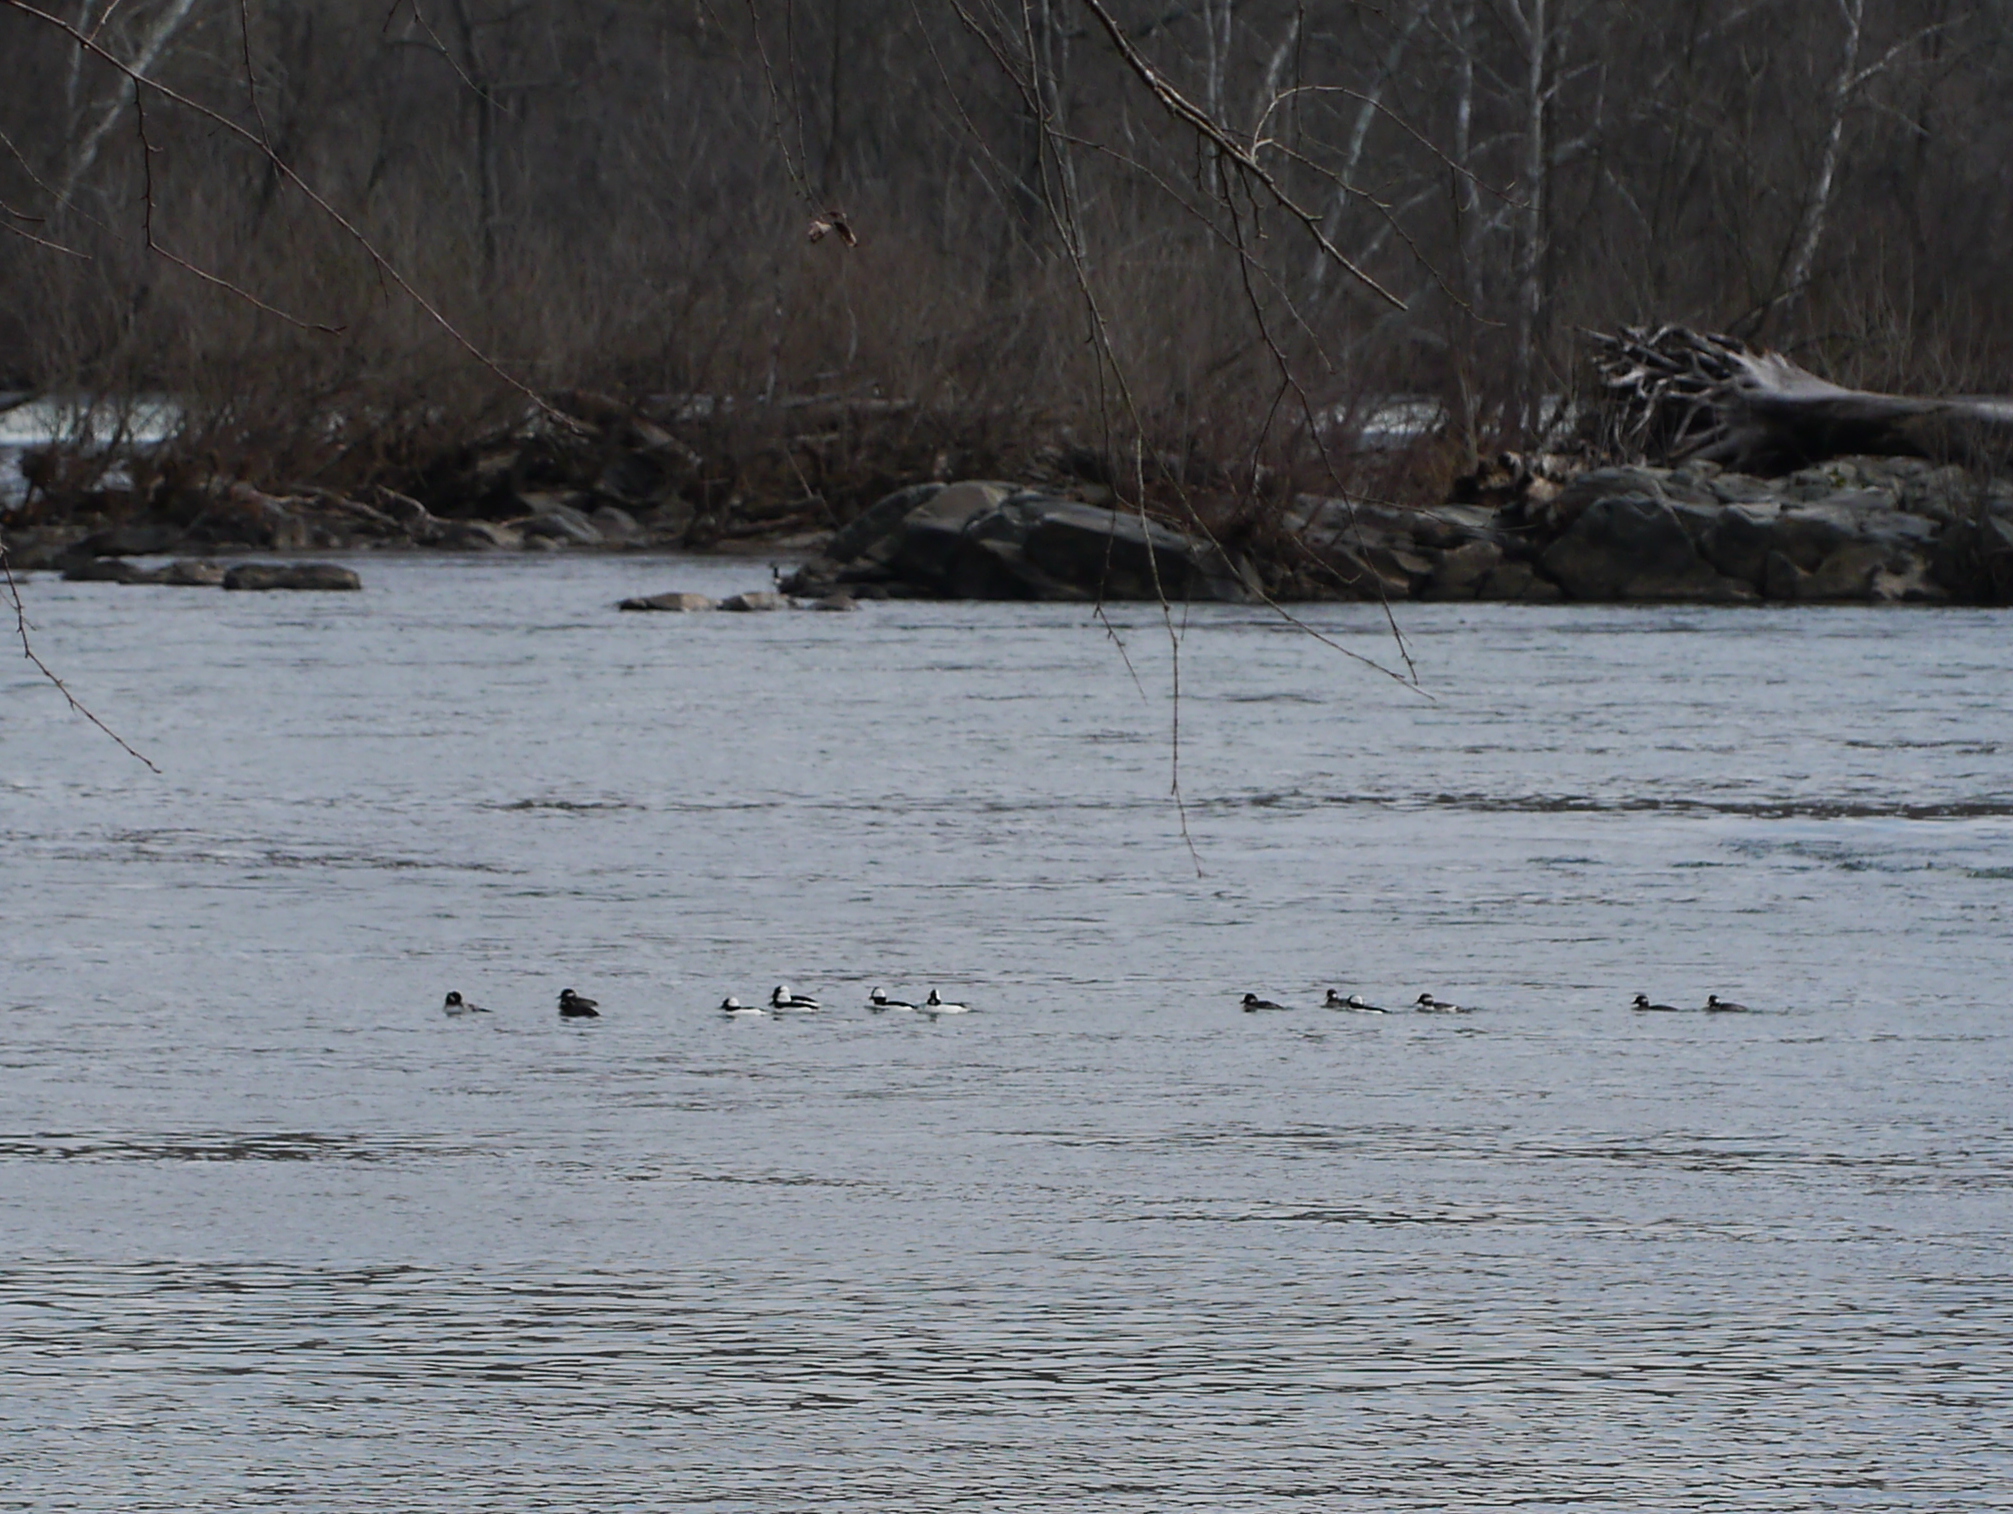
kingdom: Animalia
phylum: Chordata
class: Aves
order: Anseriformes
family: Anatidae
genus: Bucephala
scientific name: Bucephala albeola
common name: Bufflehead
